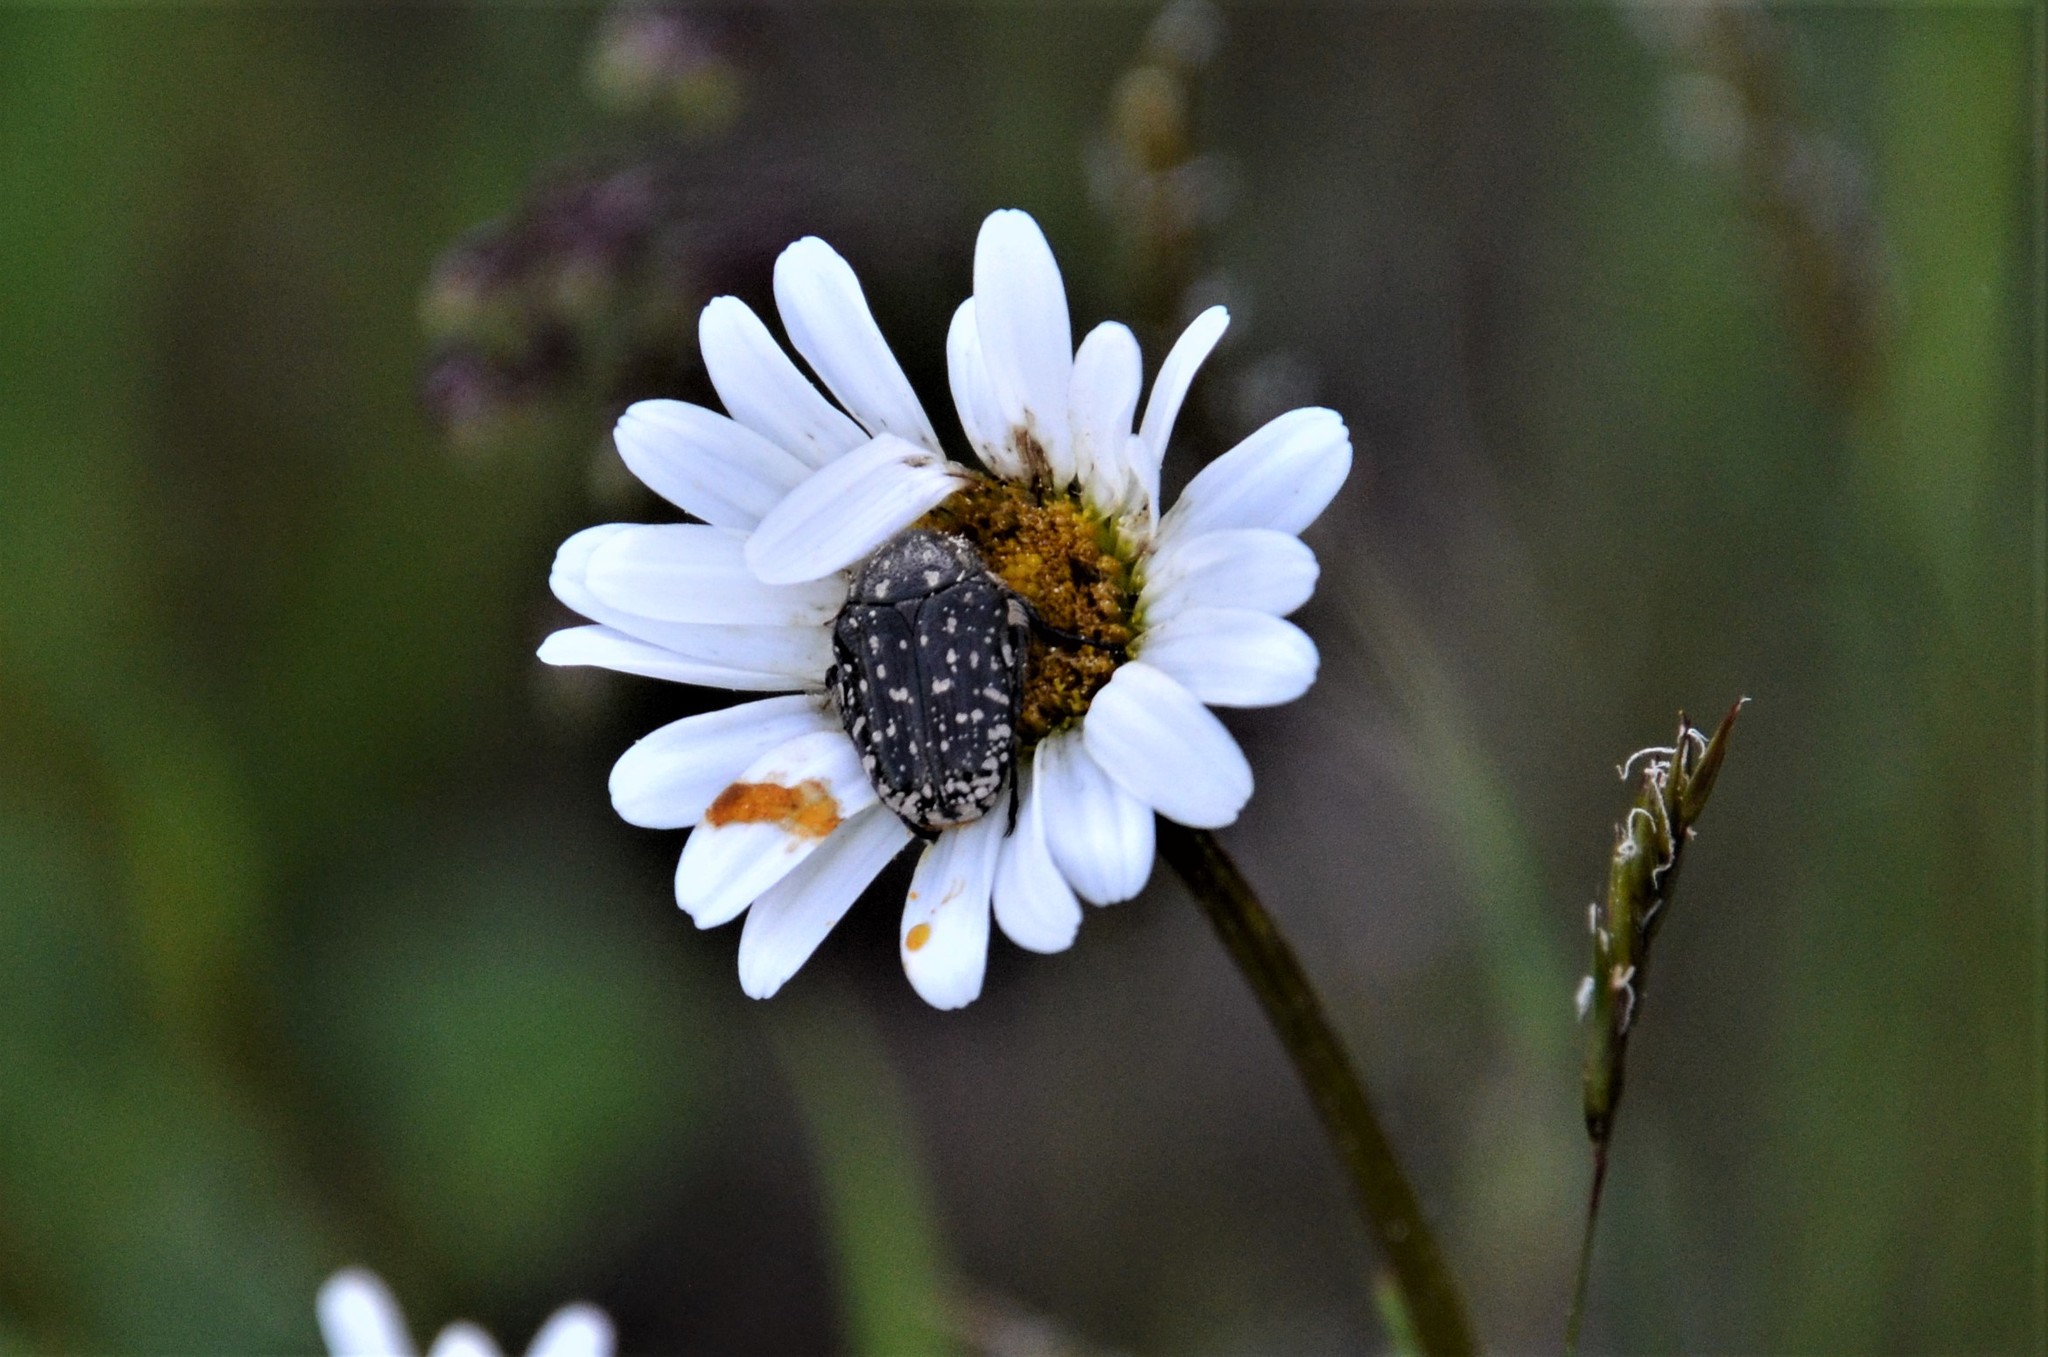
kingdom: Animalia
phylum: Arthropoda
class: Insecta
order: Coleoptera
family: Scarabaeidae
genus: Oxythyrea
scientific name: Oxythyrea funesta
